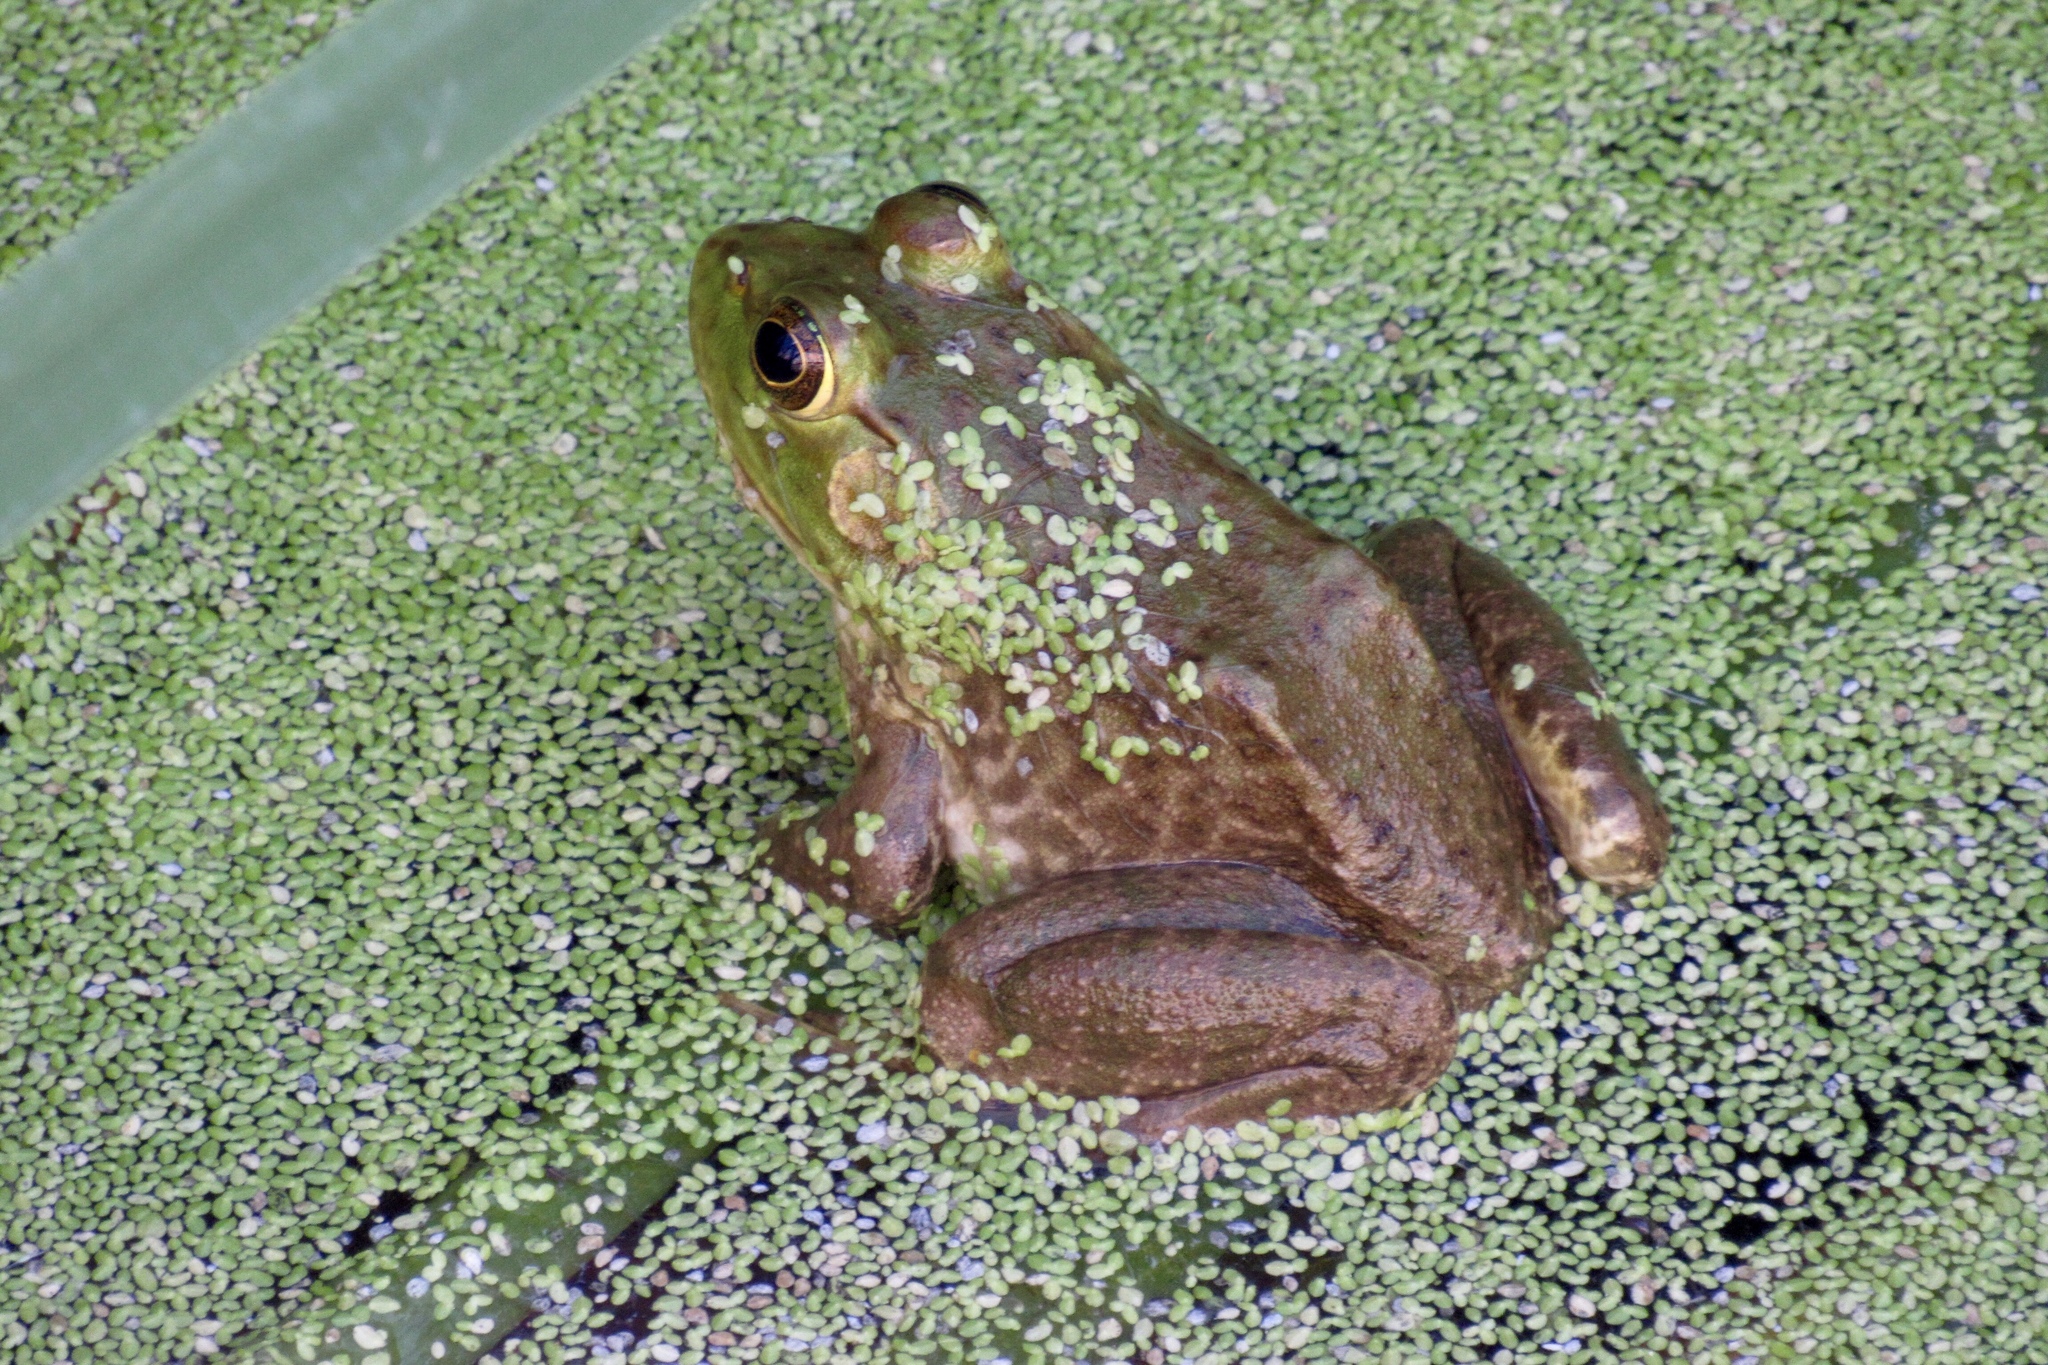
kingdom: Animalia
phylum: Chordata
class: Amphibia
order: Anura
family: Ranidae
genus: Lithobates
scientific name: Lithobates catesbeianus
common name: American bullfrog
